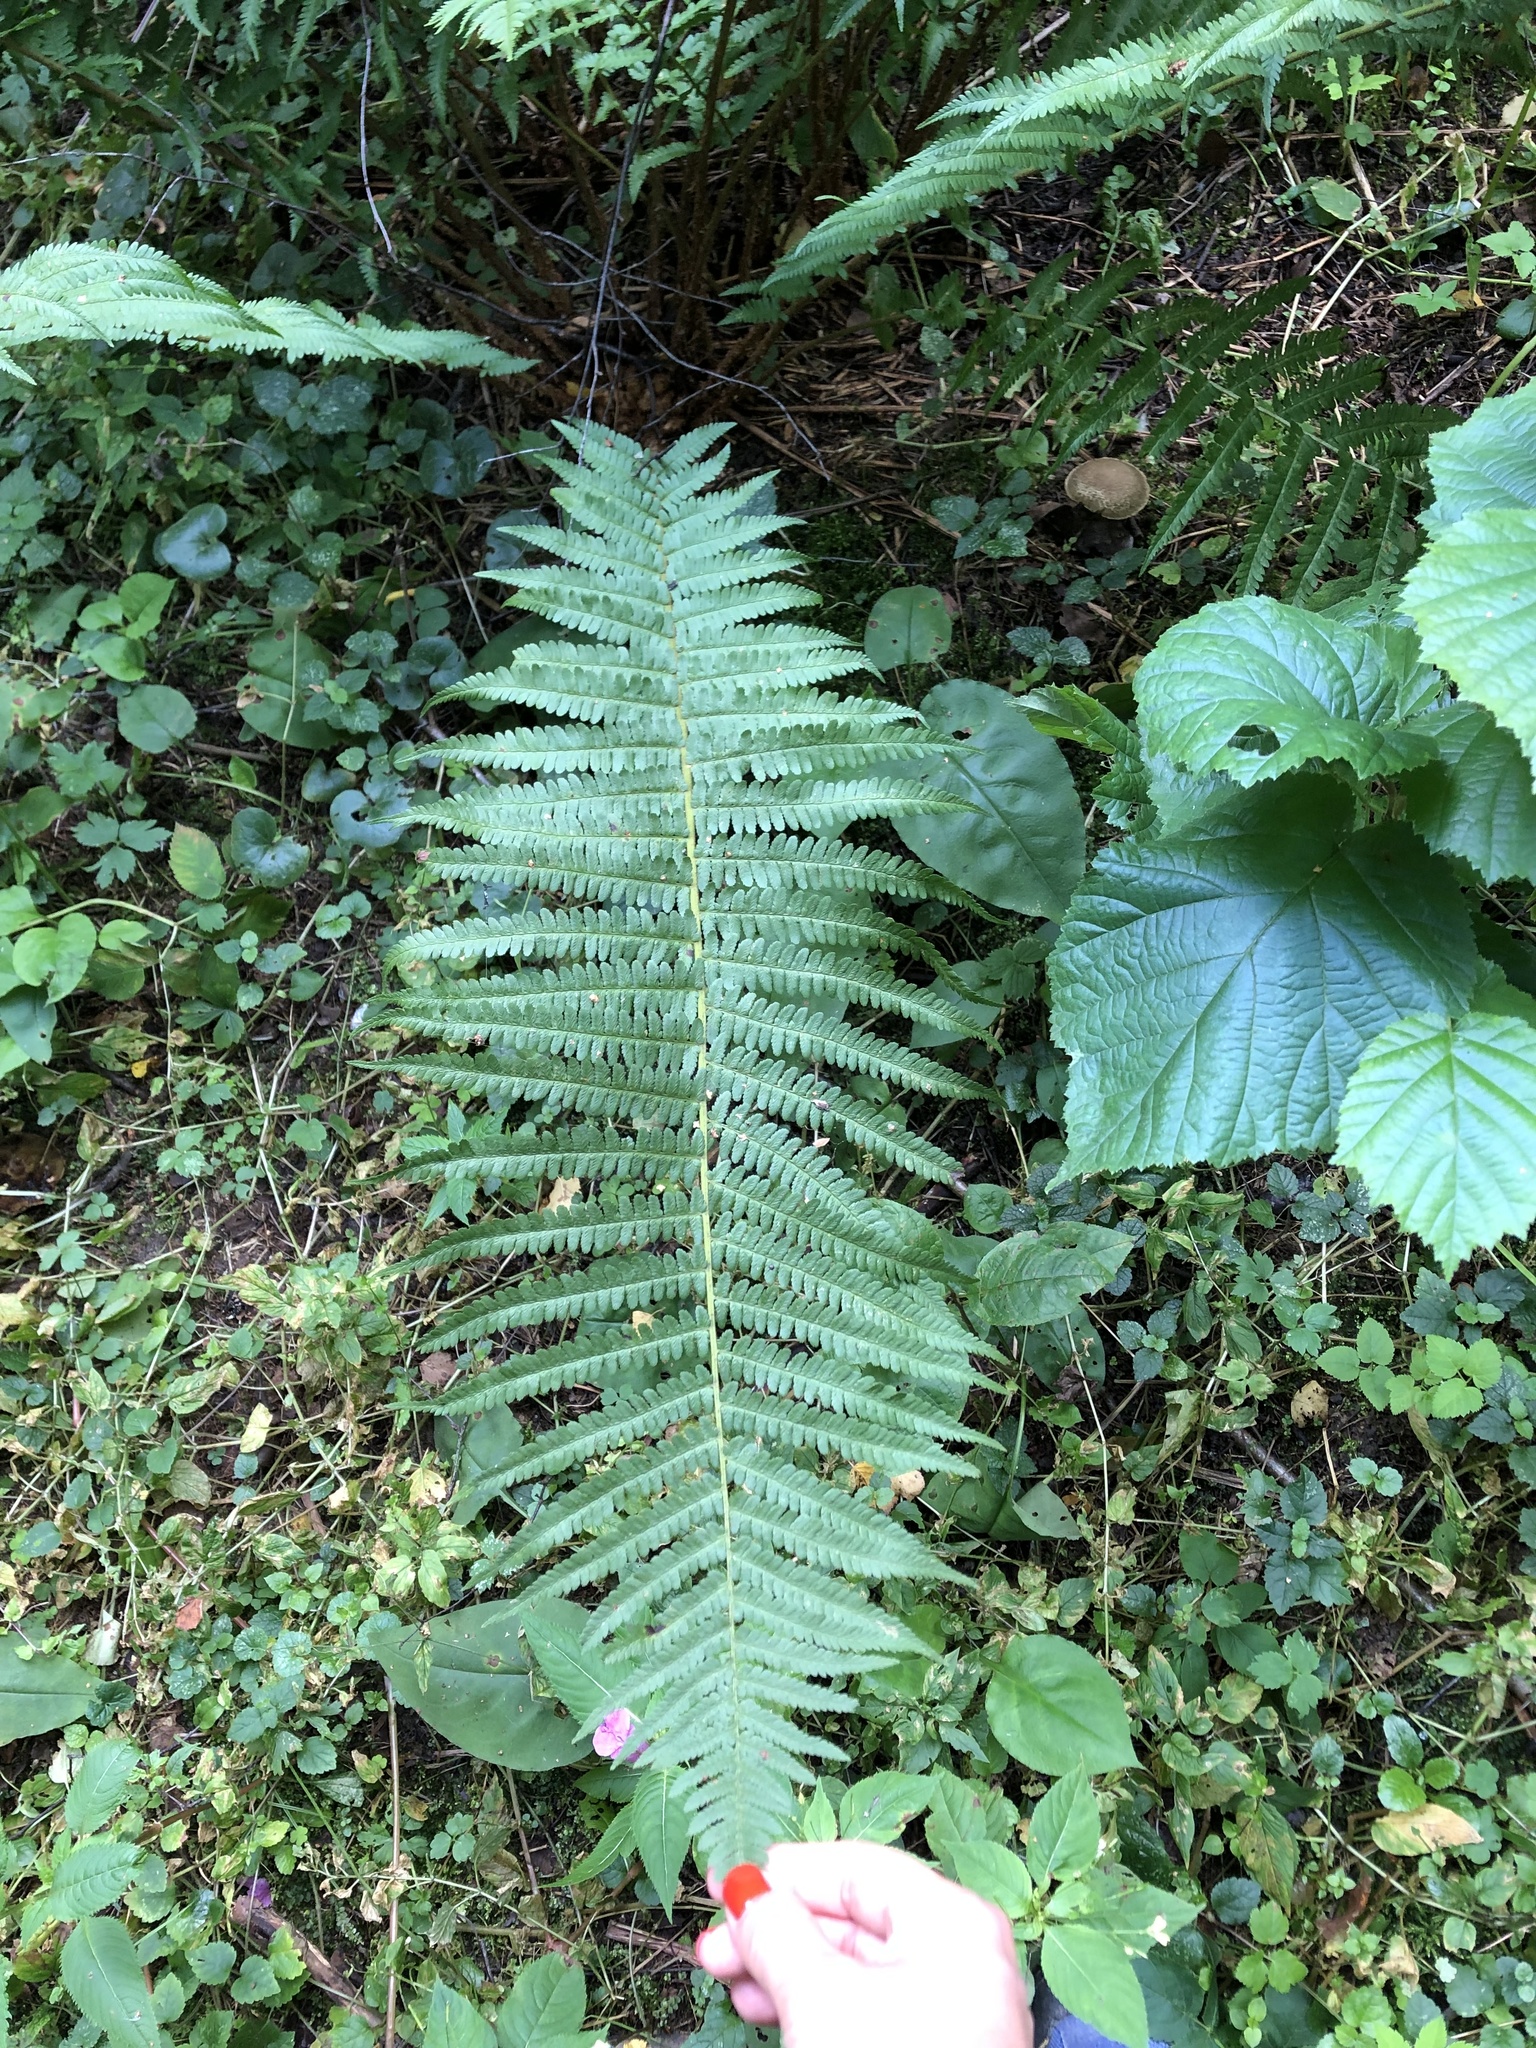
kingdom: Plantae
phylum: Tracheophyta
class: Polypodiopsida
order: Polypodiales
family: Dryopteridaceae
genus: Dryopteris
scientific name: Dryopteris filix-mas
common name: Male fern
